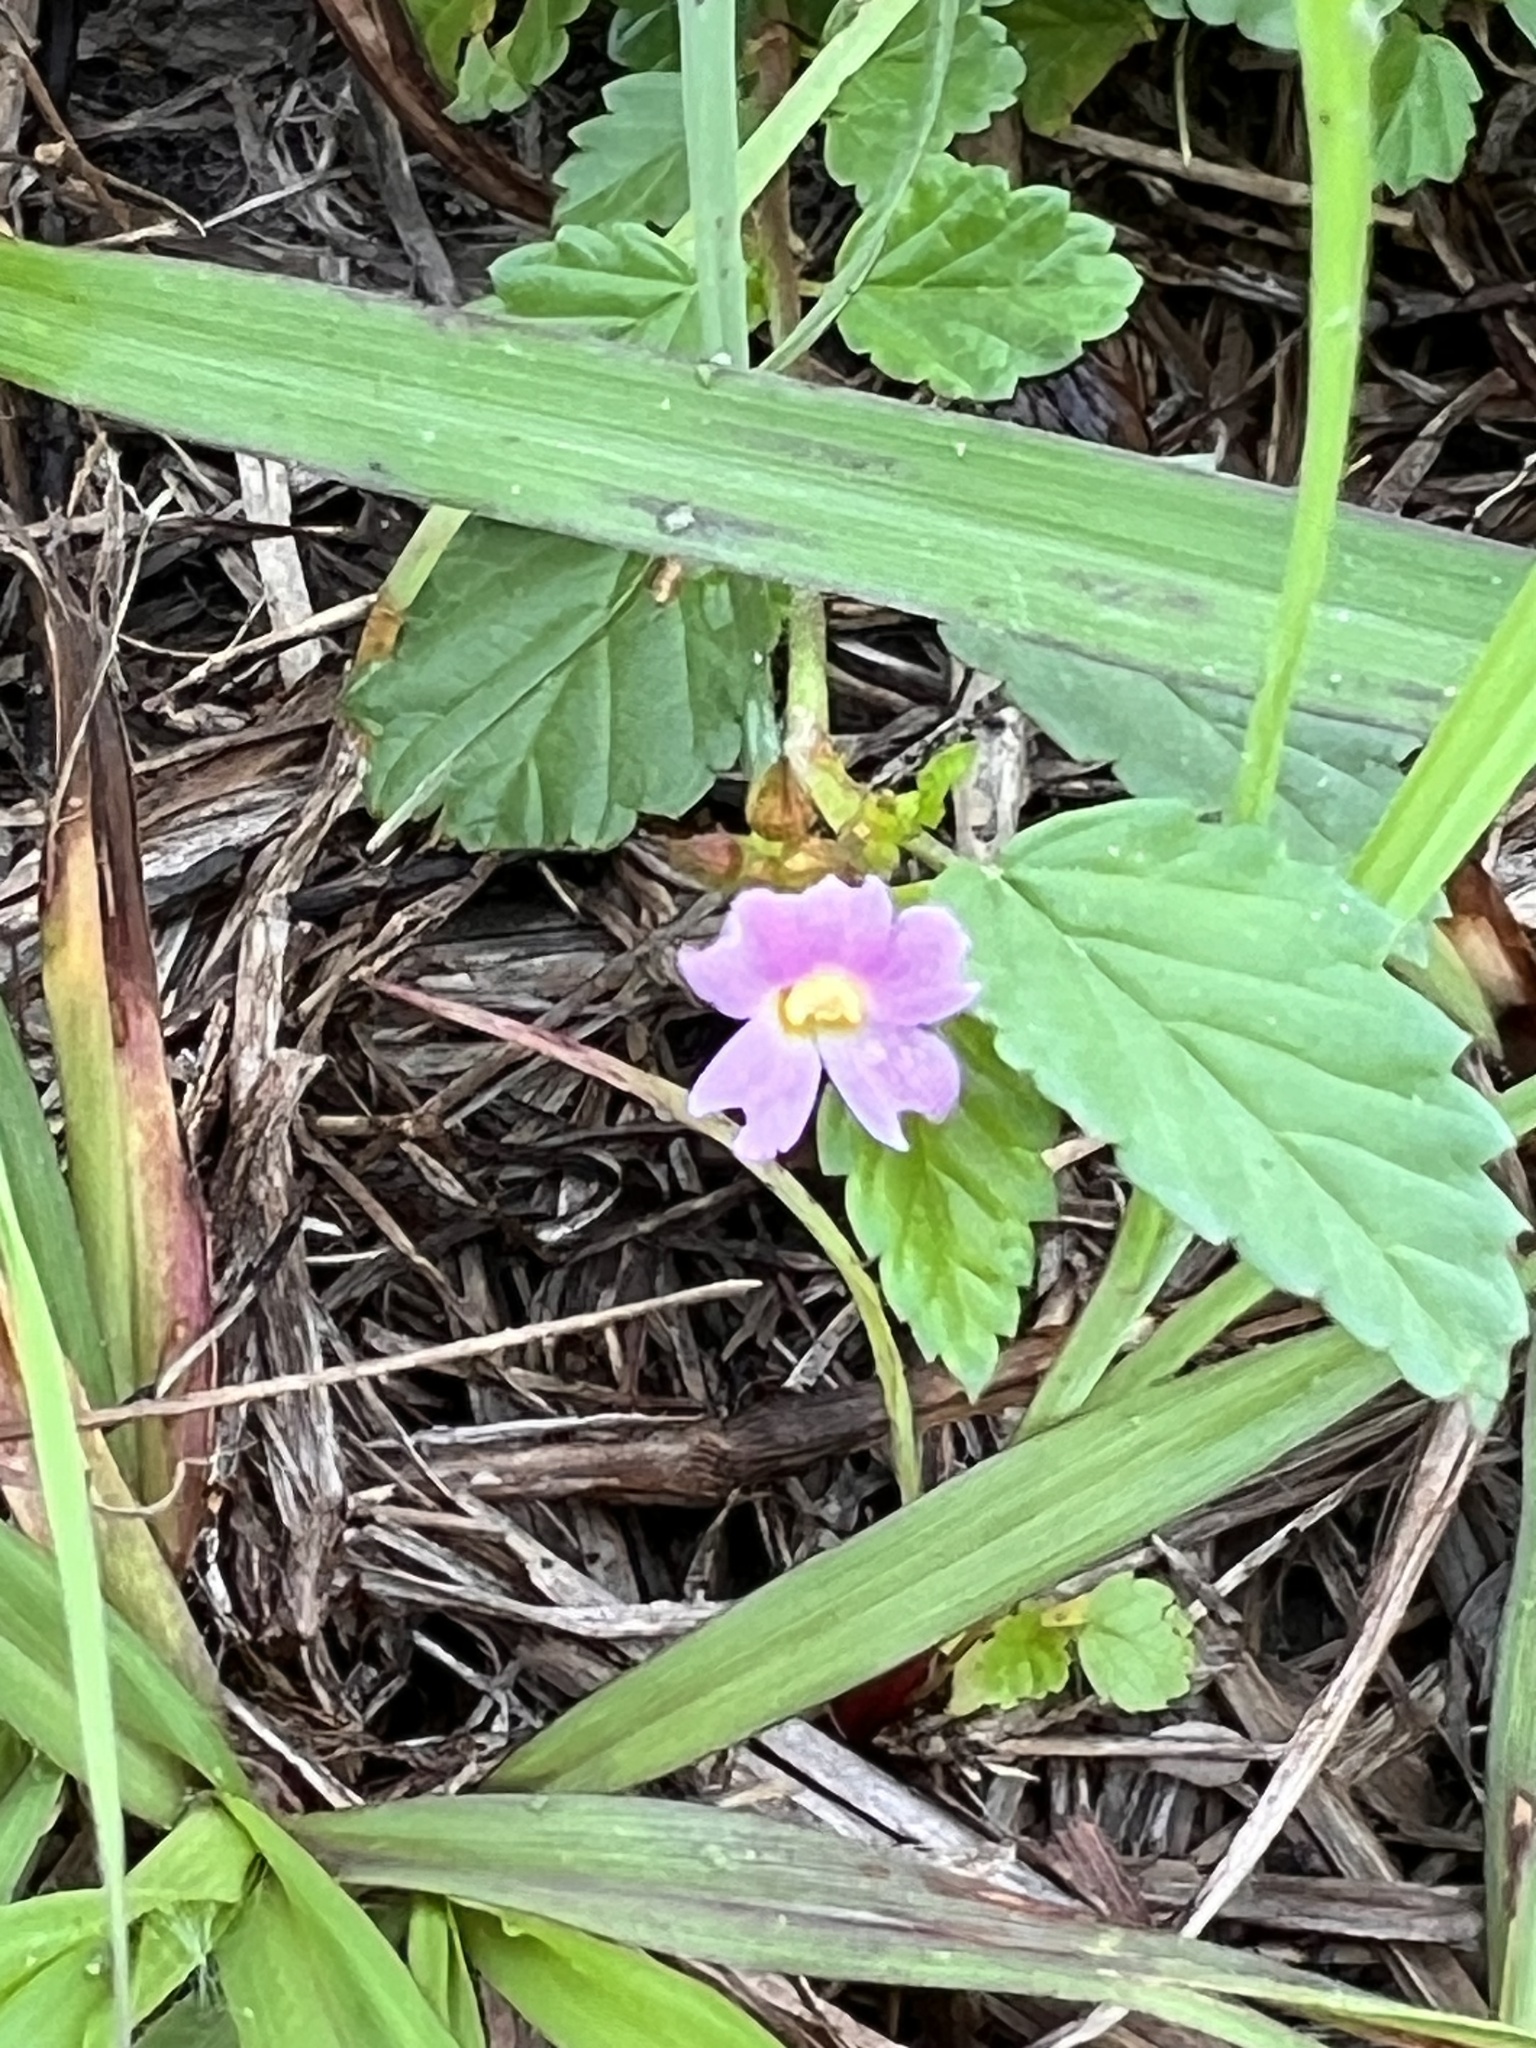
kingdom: Plantae
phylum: Tracheophyta
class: Magnoliopsida
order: Malvales
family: Malvaceae
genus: Melochia
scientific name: Melochia pyramidata
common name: Pyramidflower
